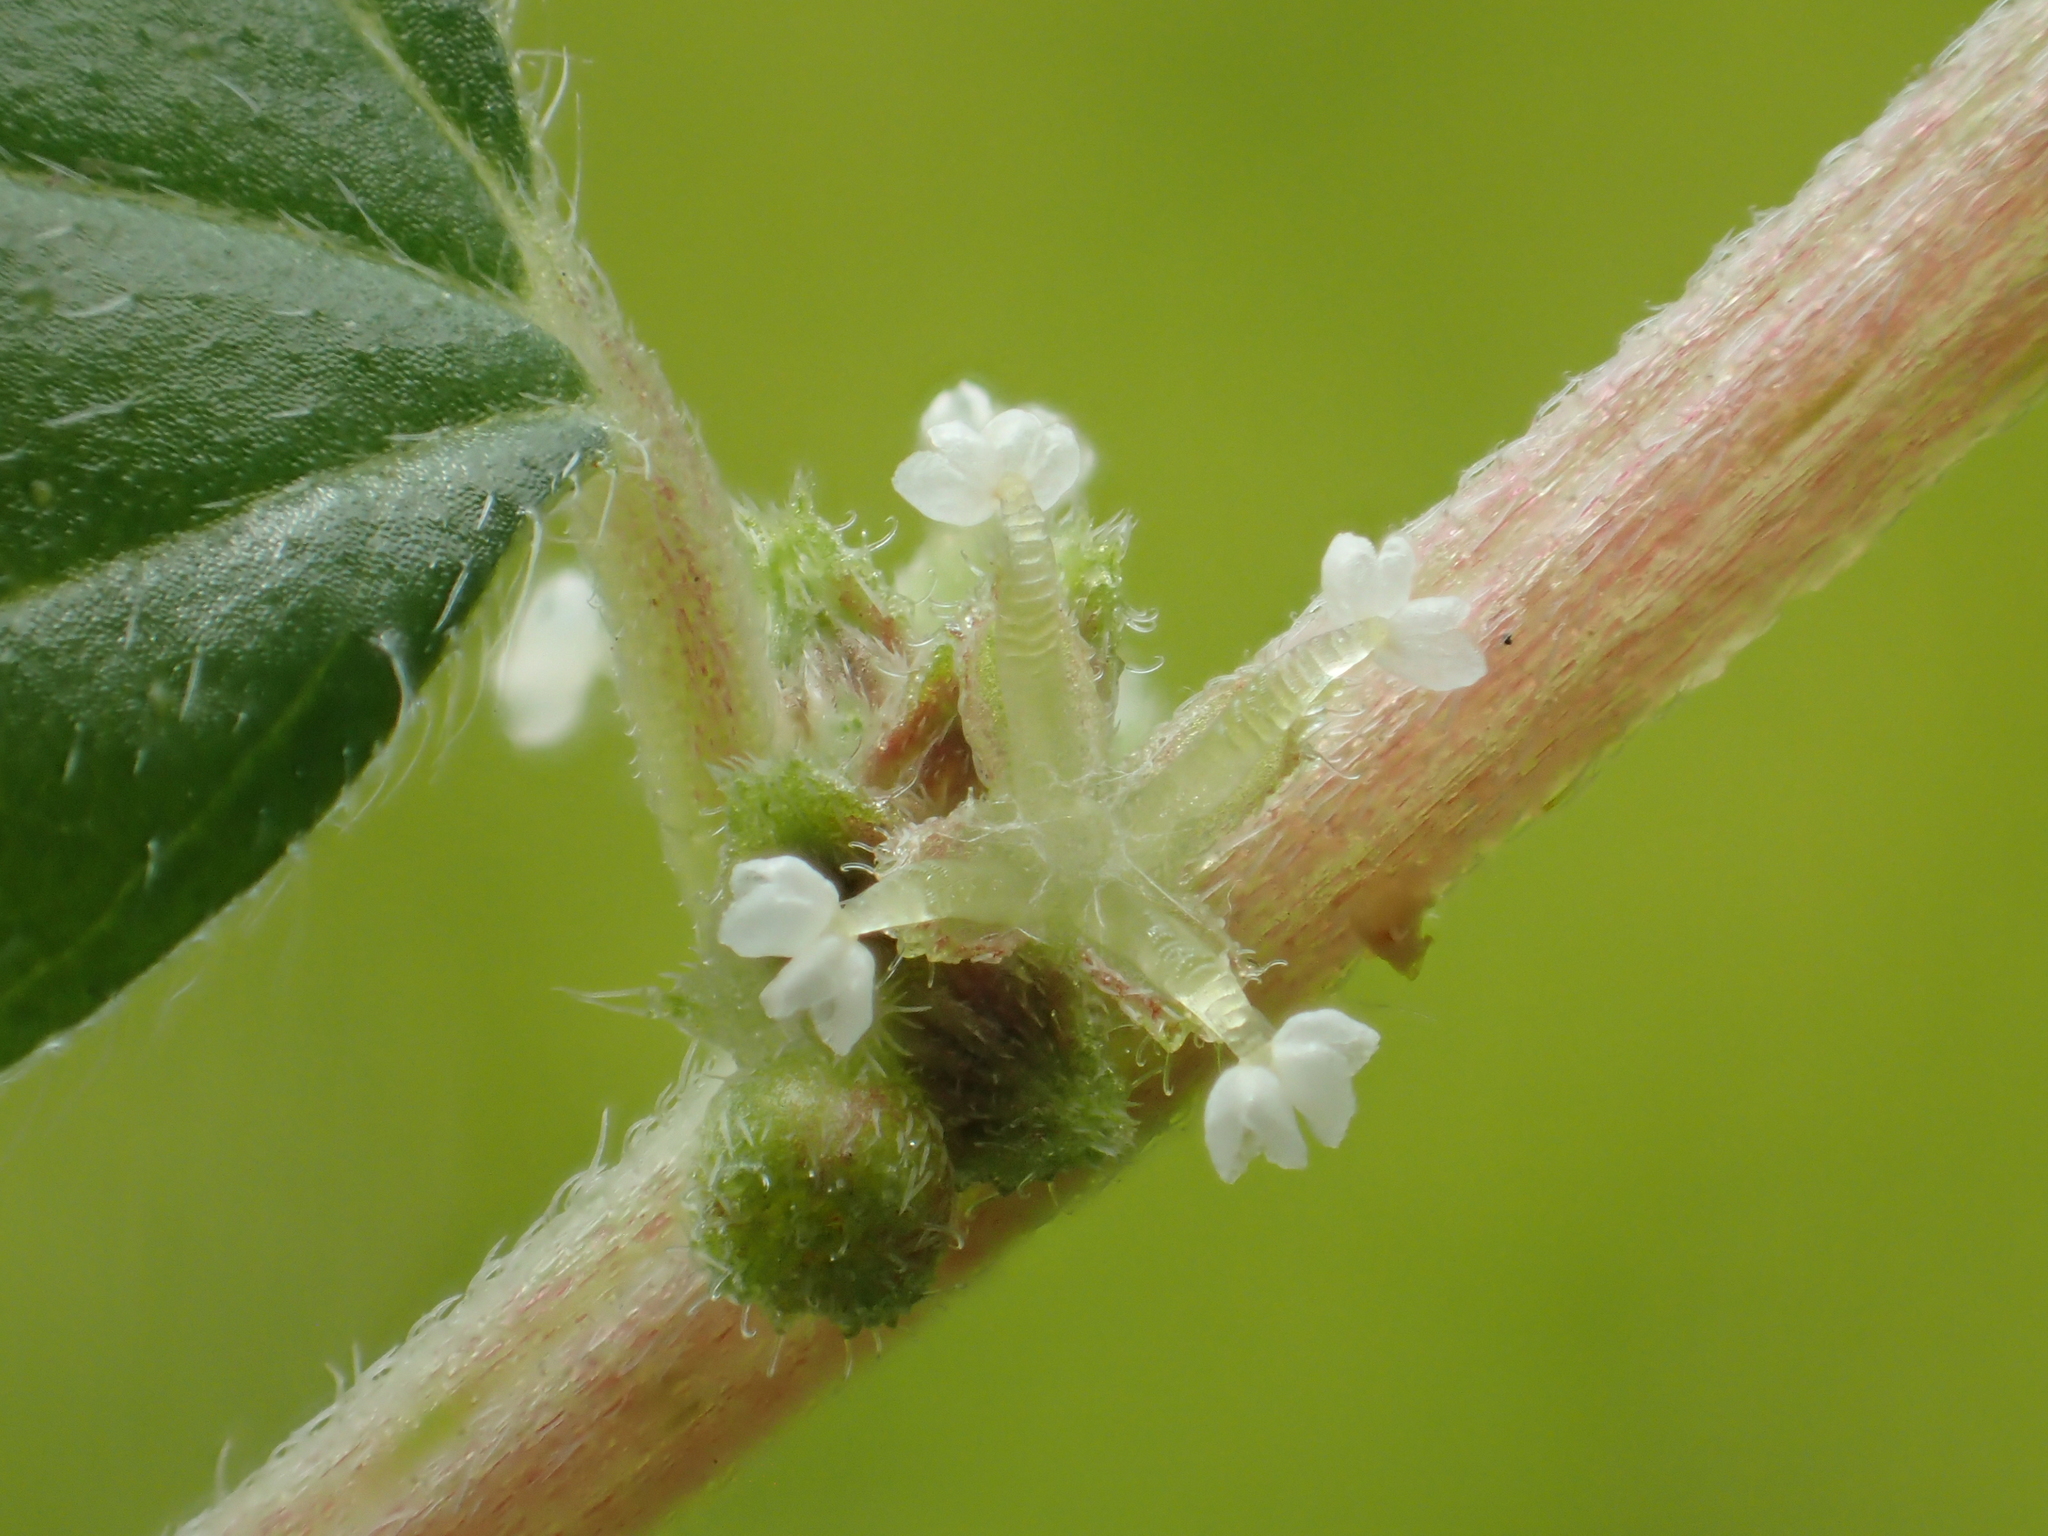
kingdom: Plantae
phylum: Tracheophyta
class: Magnoliopsida
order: Rosales
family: Urticaceae
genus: Pouzolzia
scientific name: Pouzolzia zeylanica
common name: Graceful pouzolzsbush
